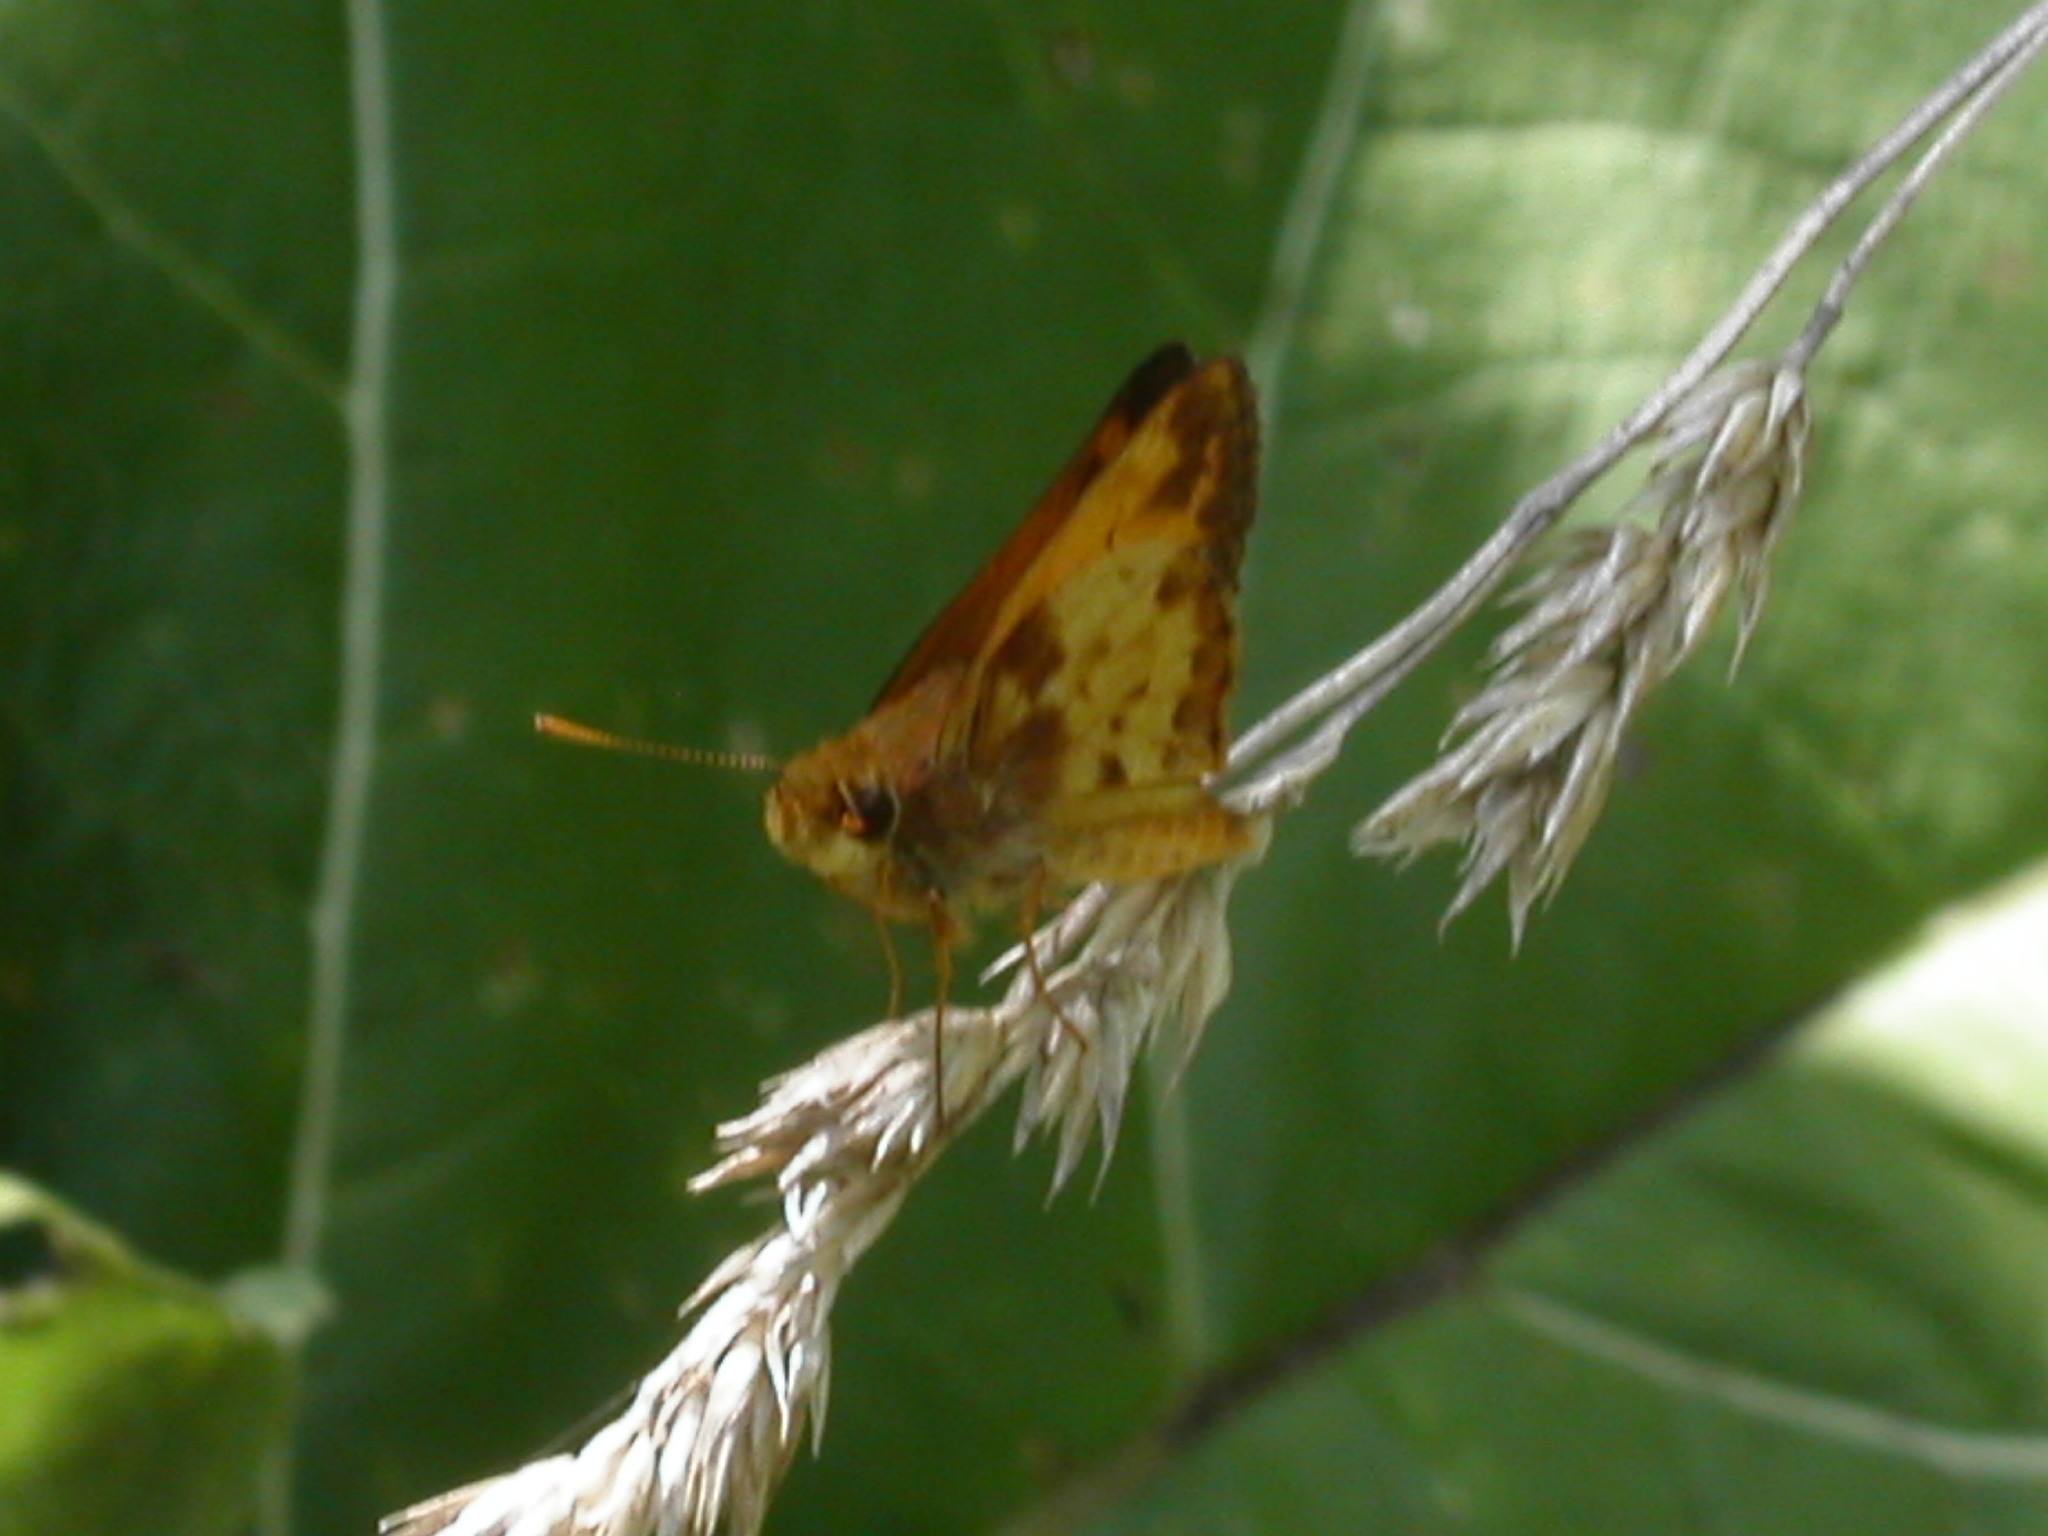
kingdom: Animalia
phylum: Arthropoda
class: Insecta
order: Lepidoptera
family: Hesperiidae
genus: Lon
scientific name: Lon zabulon
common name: Zabulon skipper
